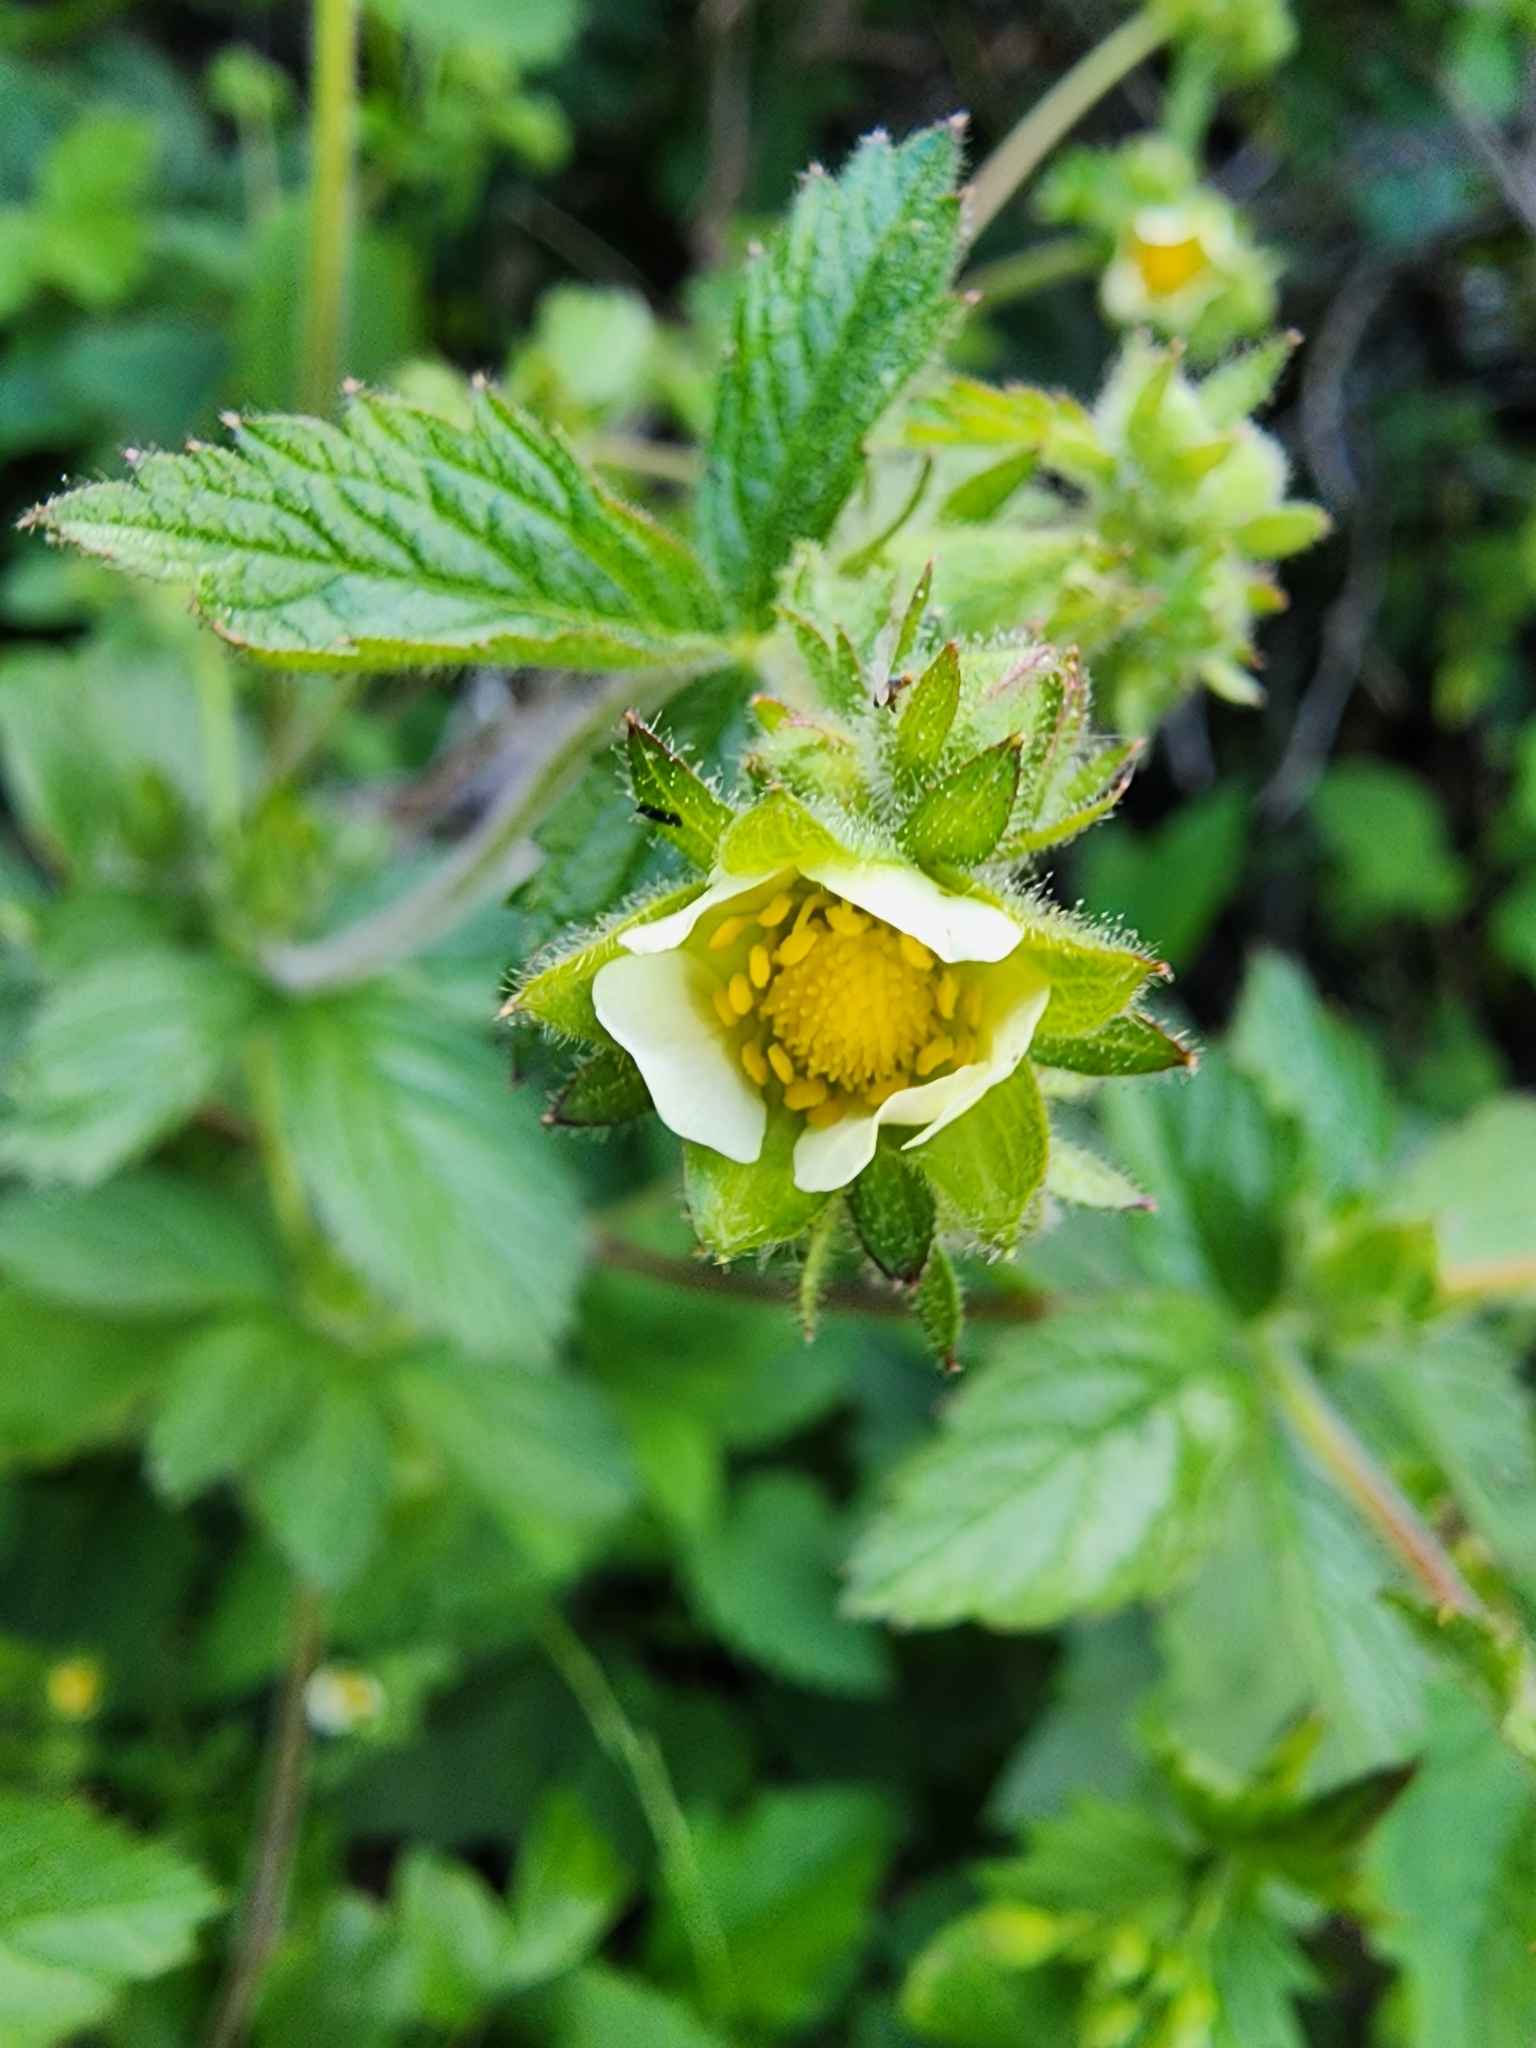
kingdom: Plantae
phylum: Tracheophyta
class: Magnoliopsida
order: Rosales
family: Rosaceae
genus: Drymocallis
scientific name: Drymocallis glandulosa
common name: Sticky cinquefoil
